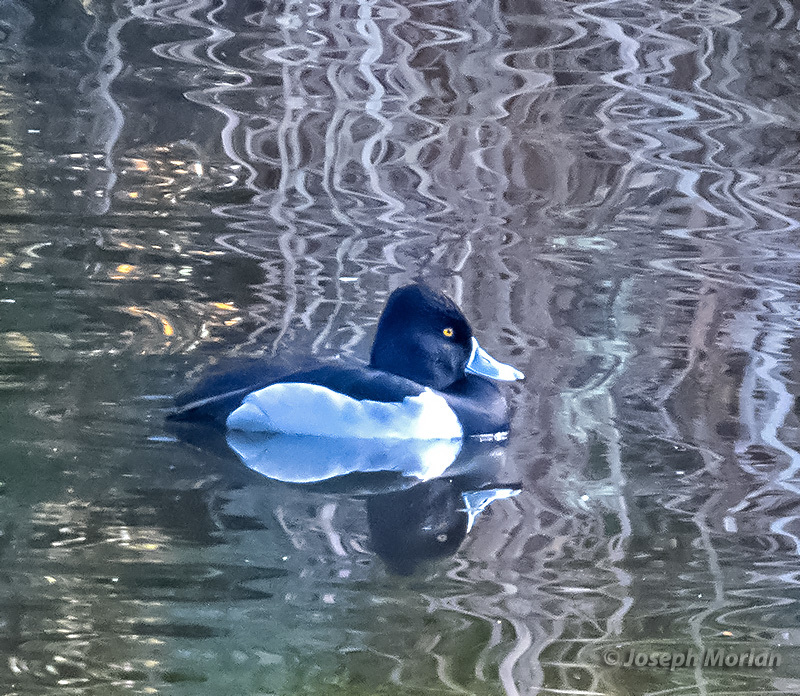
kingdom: Animalia
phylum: Chordata
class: Aves
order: Anseriformes
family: Anatidae
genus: Aythya
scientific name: Aythya collaris
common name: Ring-necked duck
